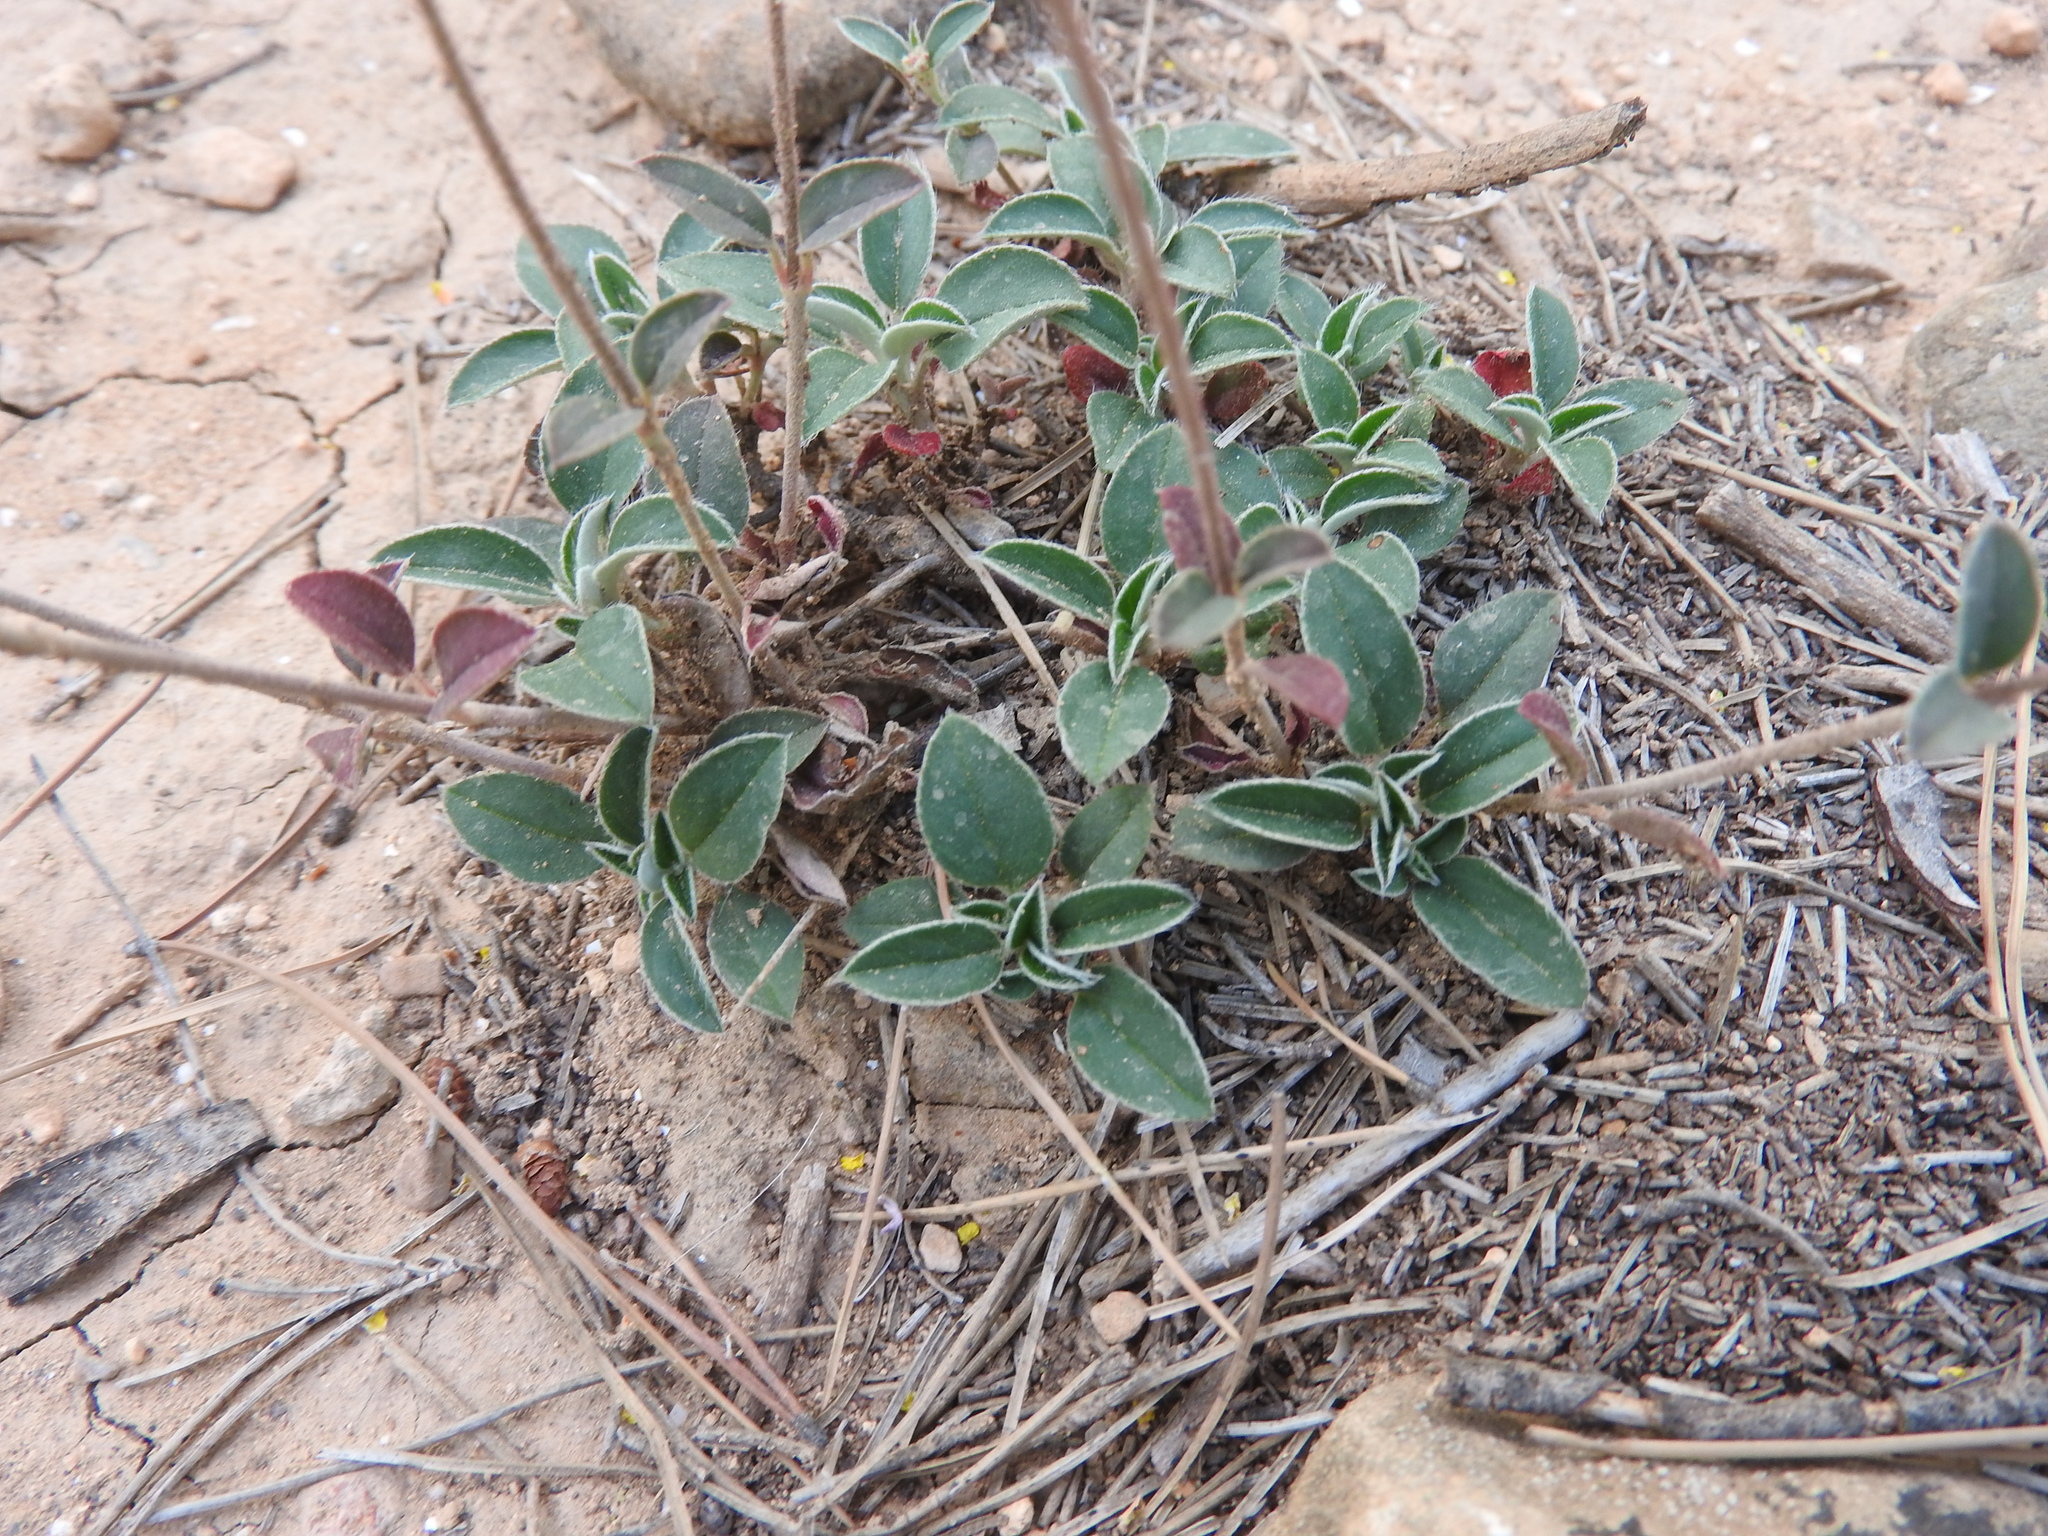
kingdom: Plantae
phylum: Tracheophyta
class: Magnoliopsida
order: Malvales
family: Cistaceae
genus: Helianthemum
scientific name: Helianthemum cinereum
